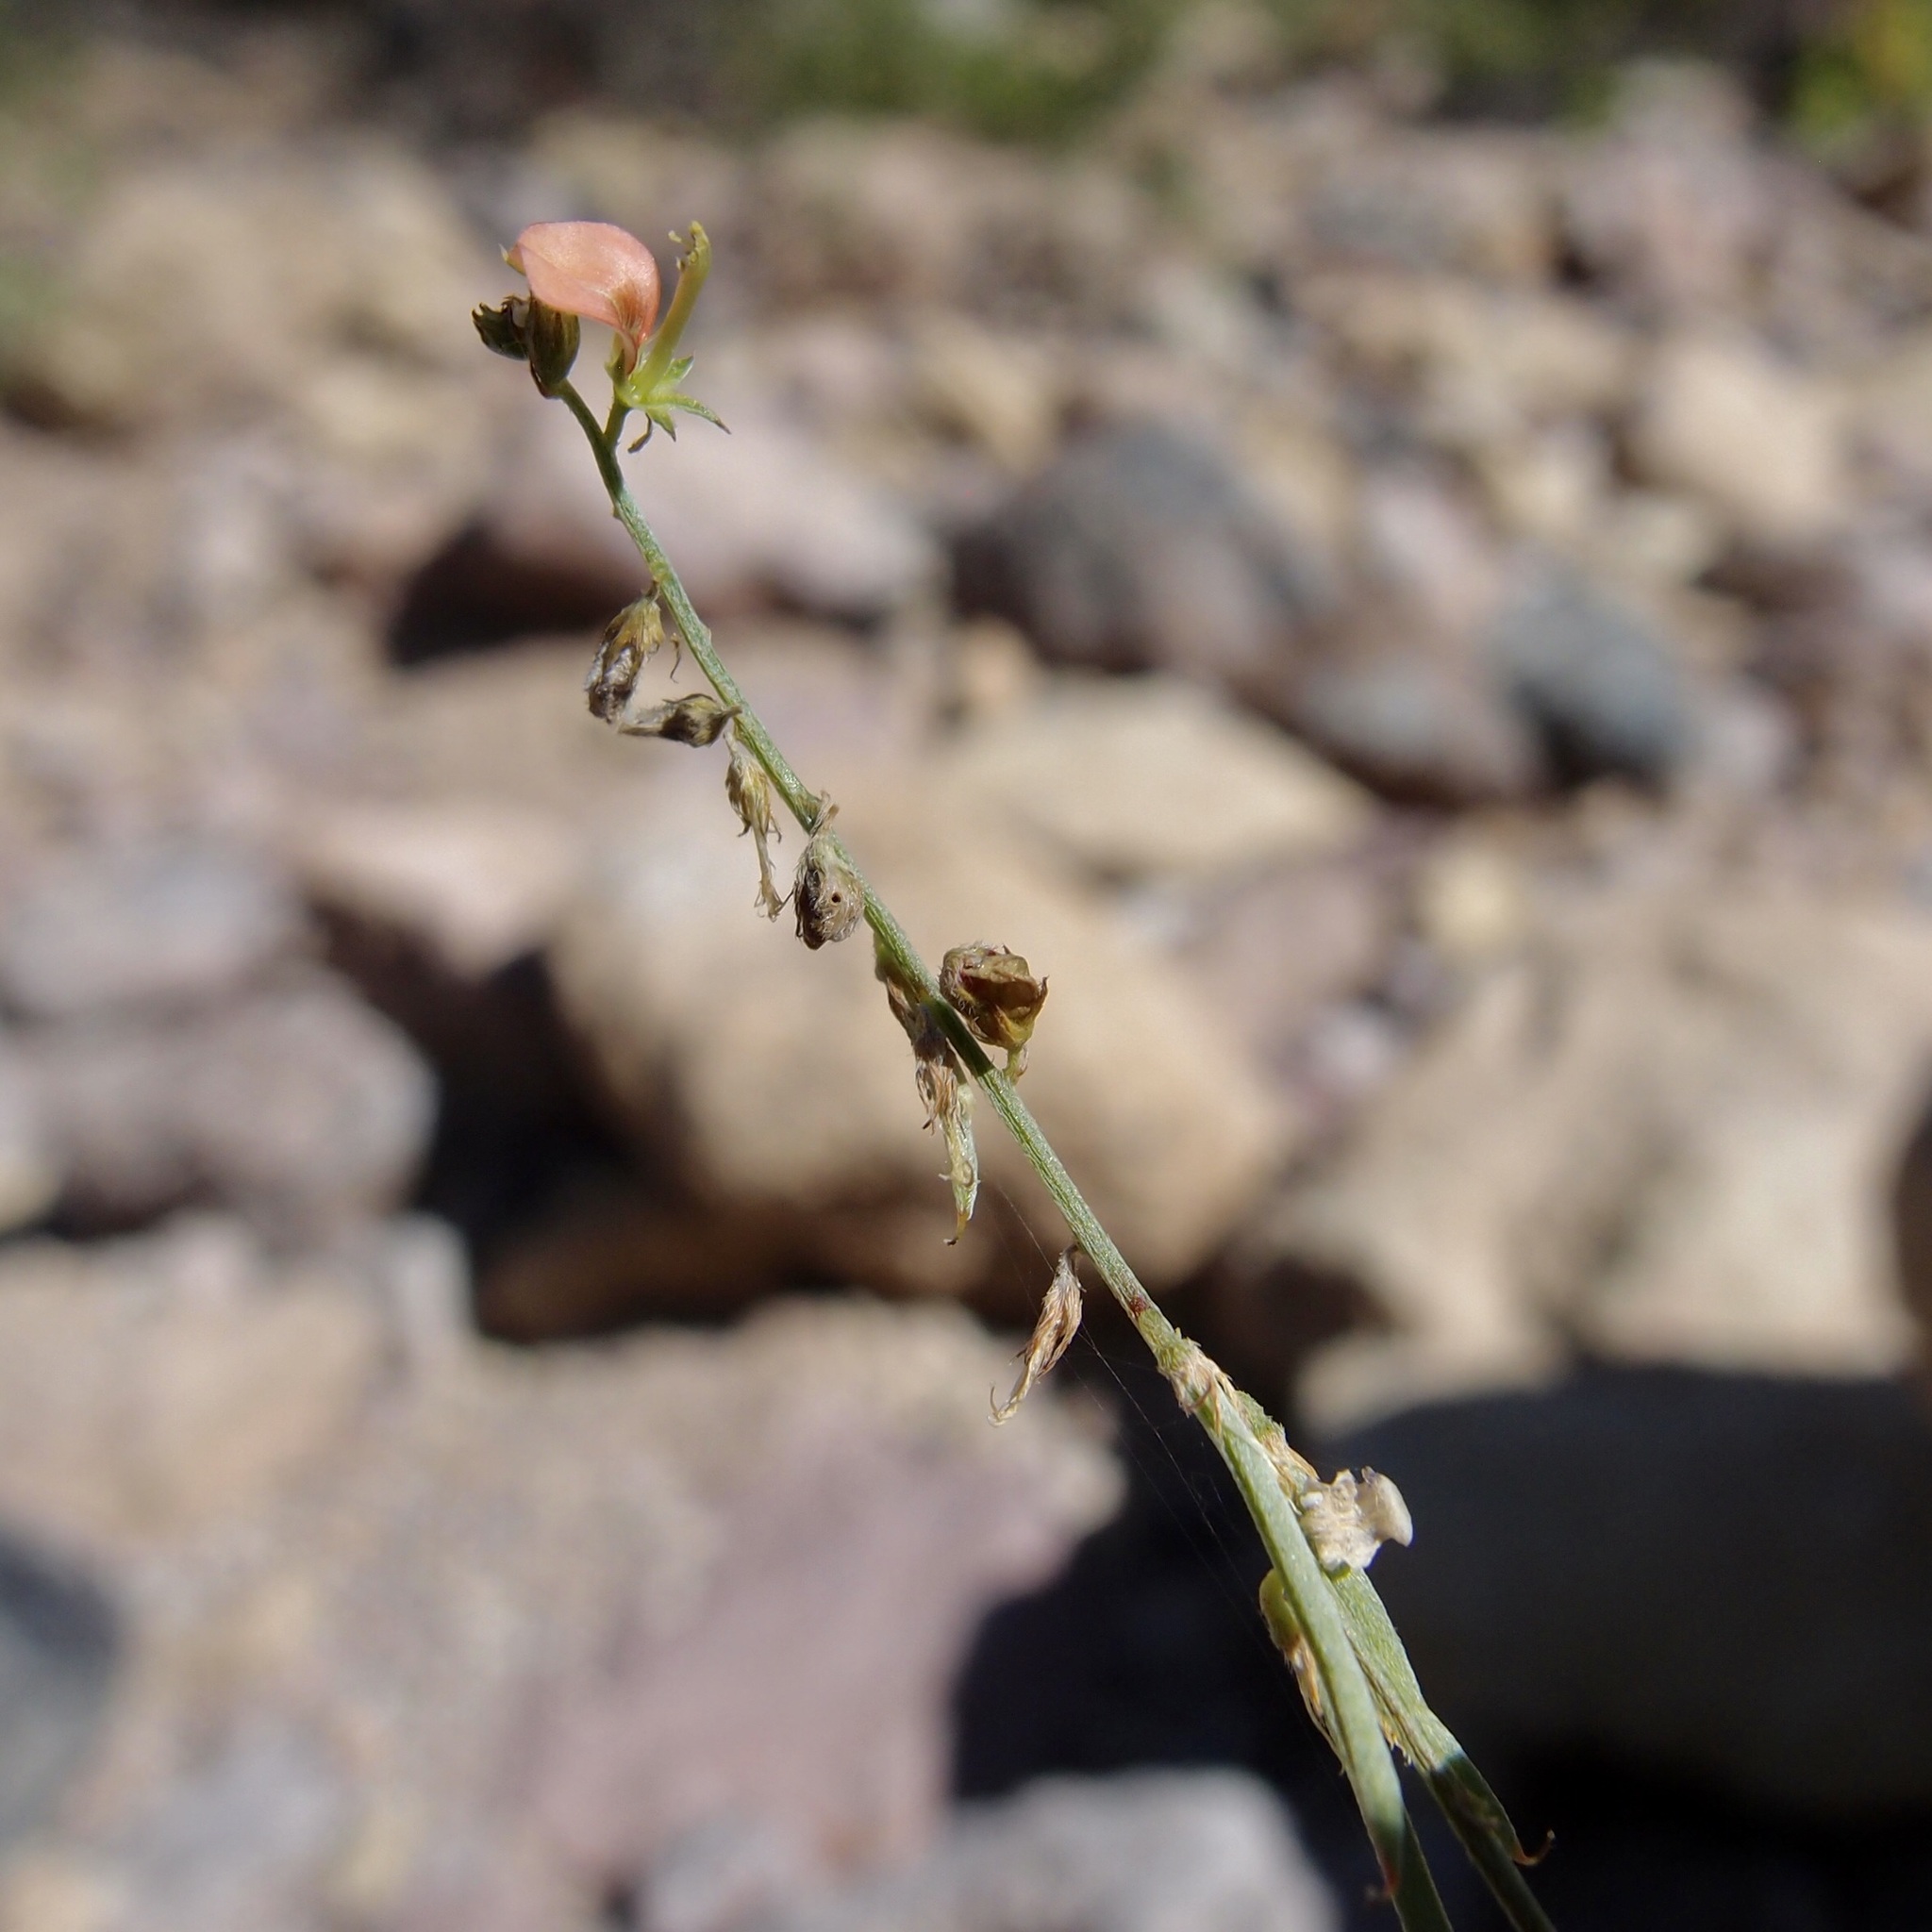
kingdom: Plantae
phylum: Tracheophyta
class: Magnoliopsida
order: Fabales
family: Fabaceae
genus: Indigofera
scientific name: Indigofera subulata
